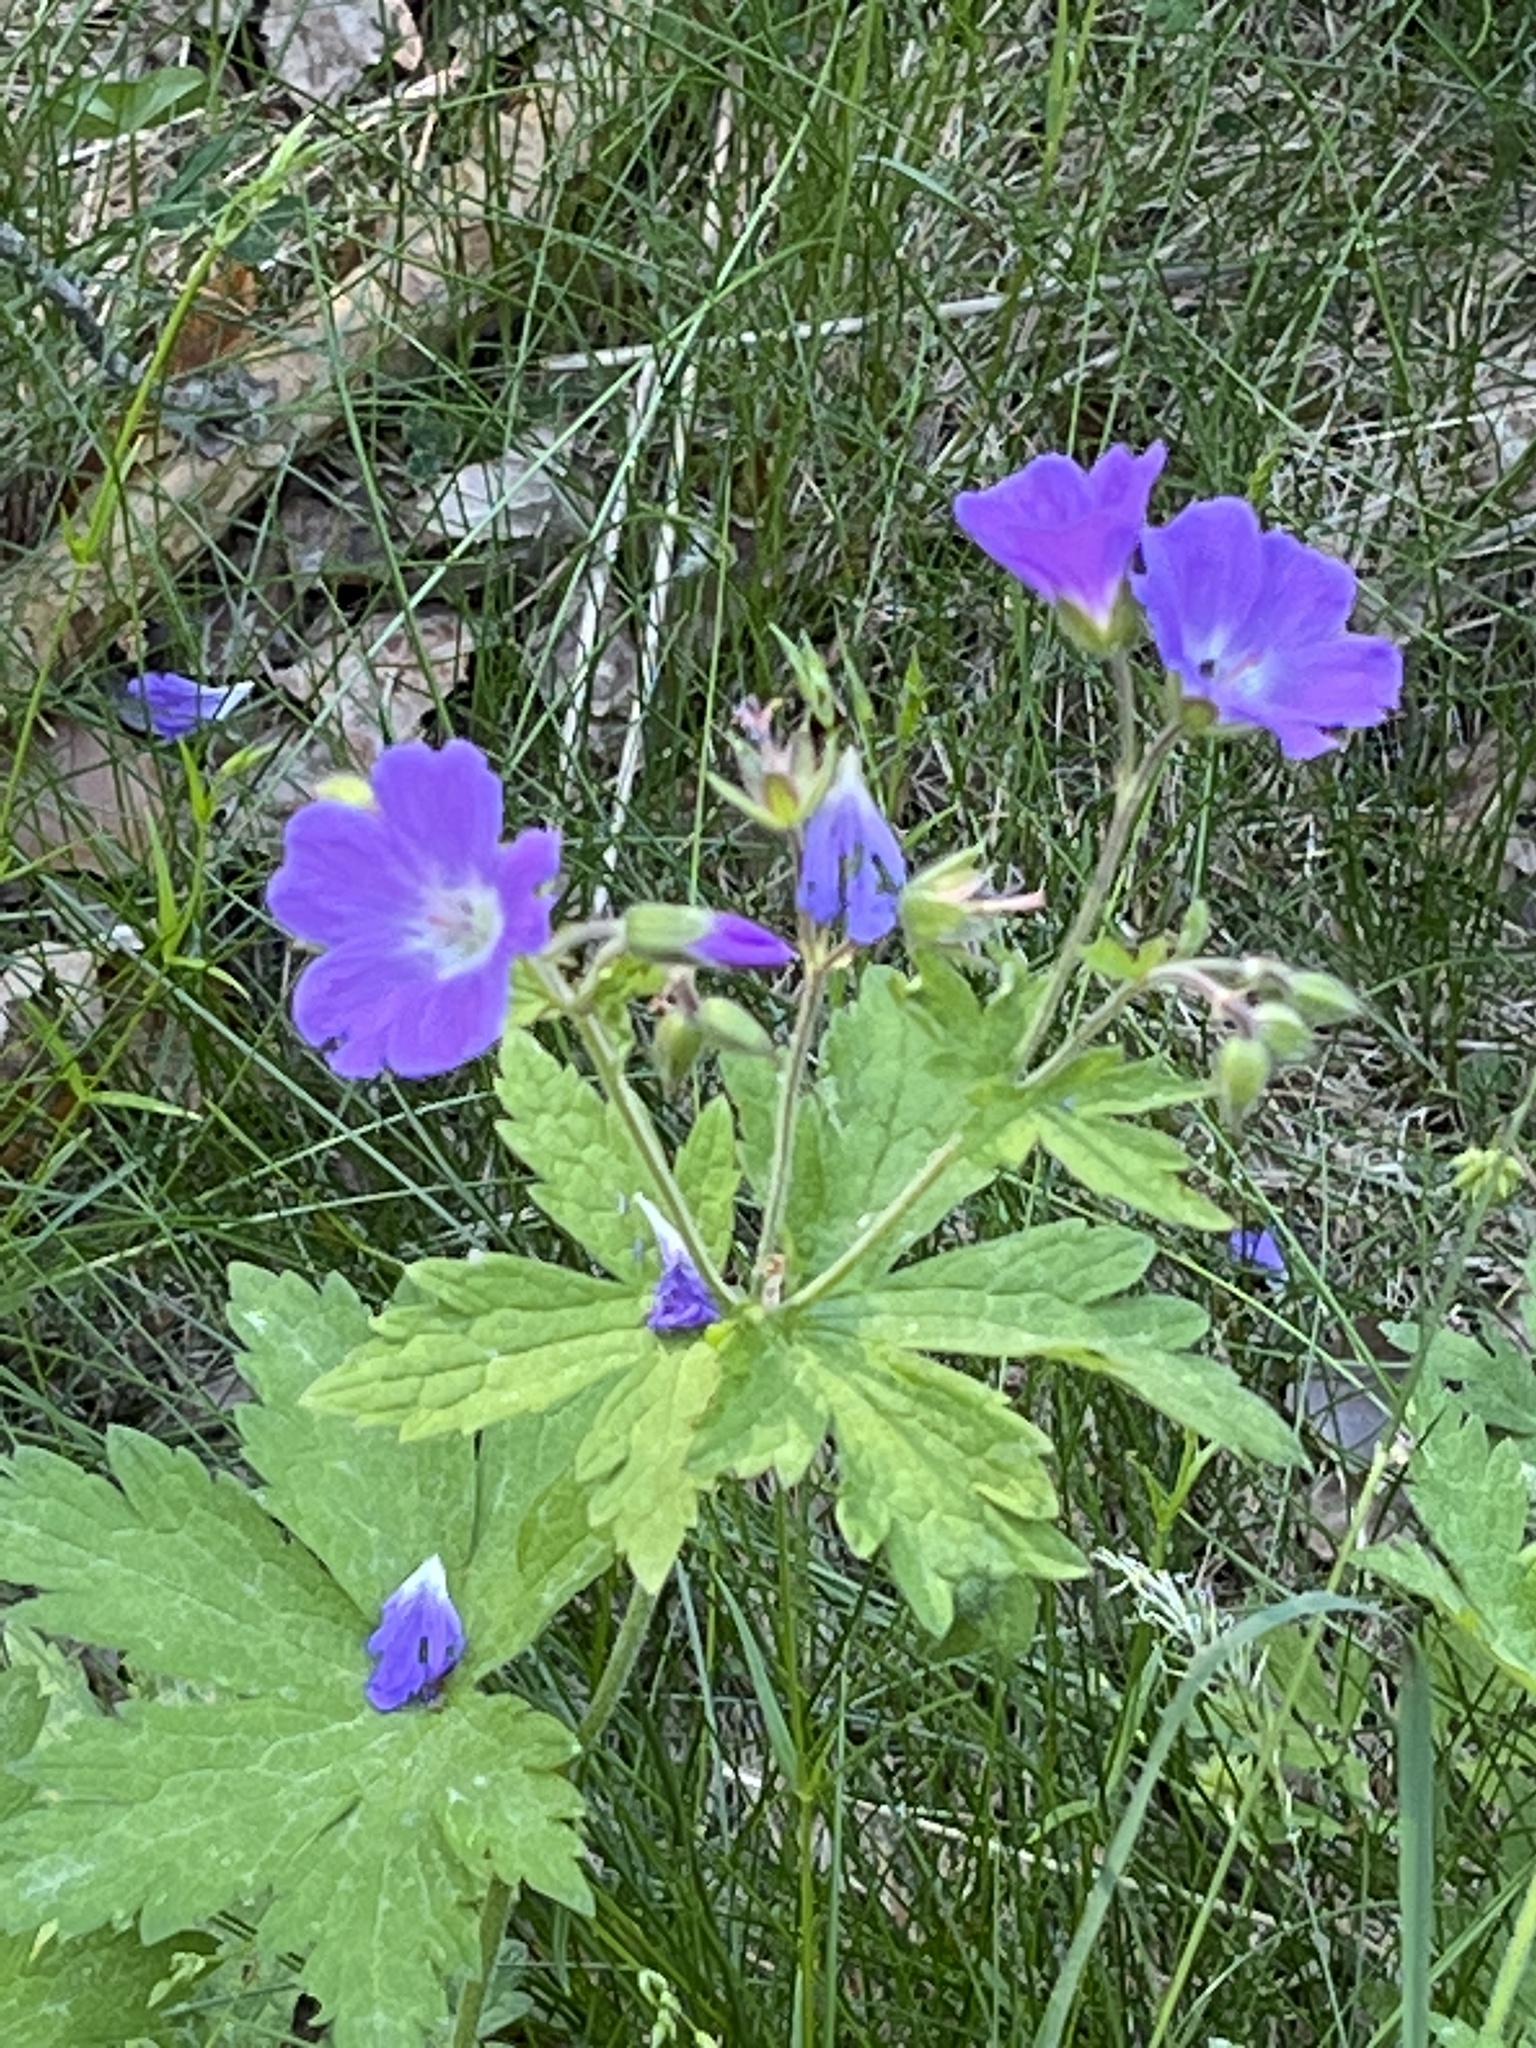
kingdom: Plantae
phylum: Tracheophyta
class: Magnoliopsida
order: Geraniales
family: Geraniaceae
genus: Geranium
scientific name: Geranium sylvaticum
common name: Wood crane's-bill
